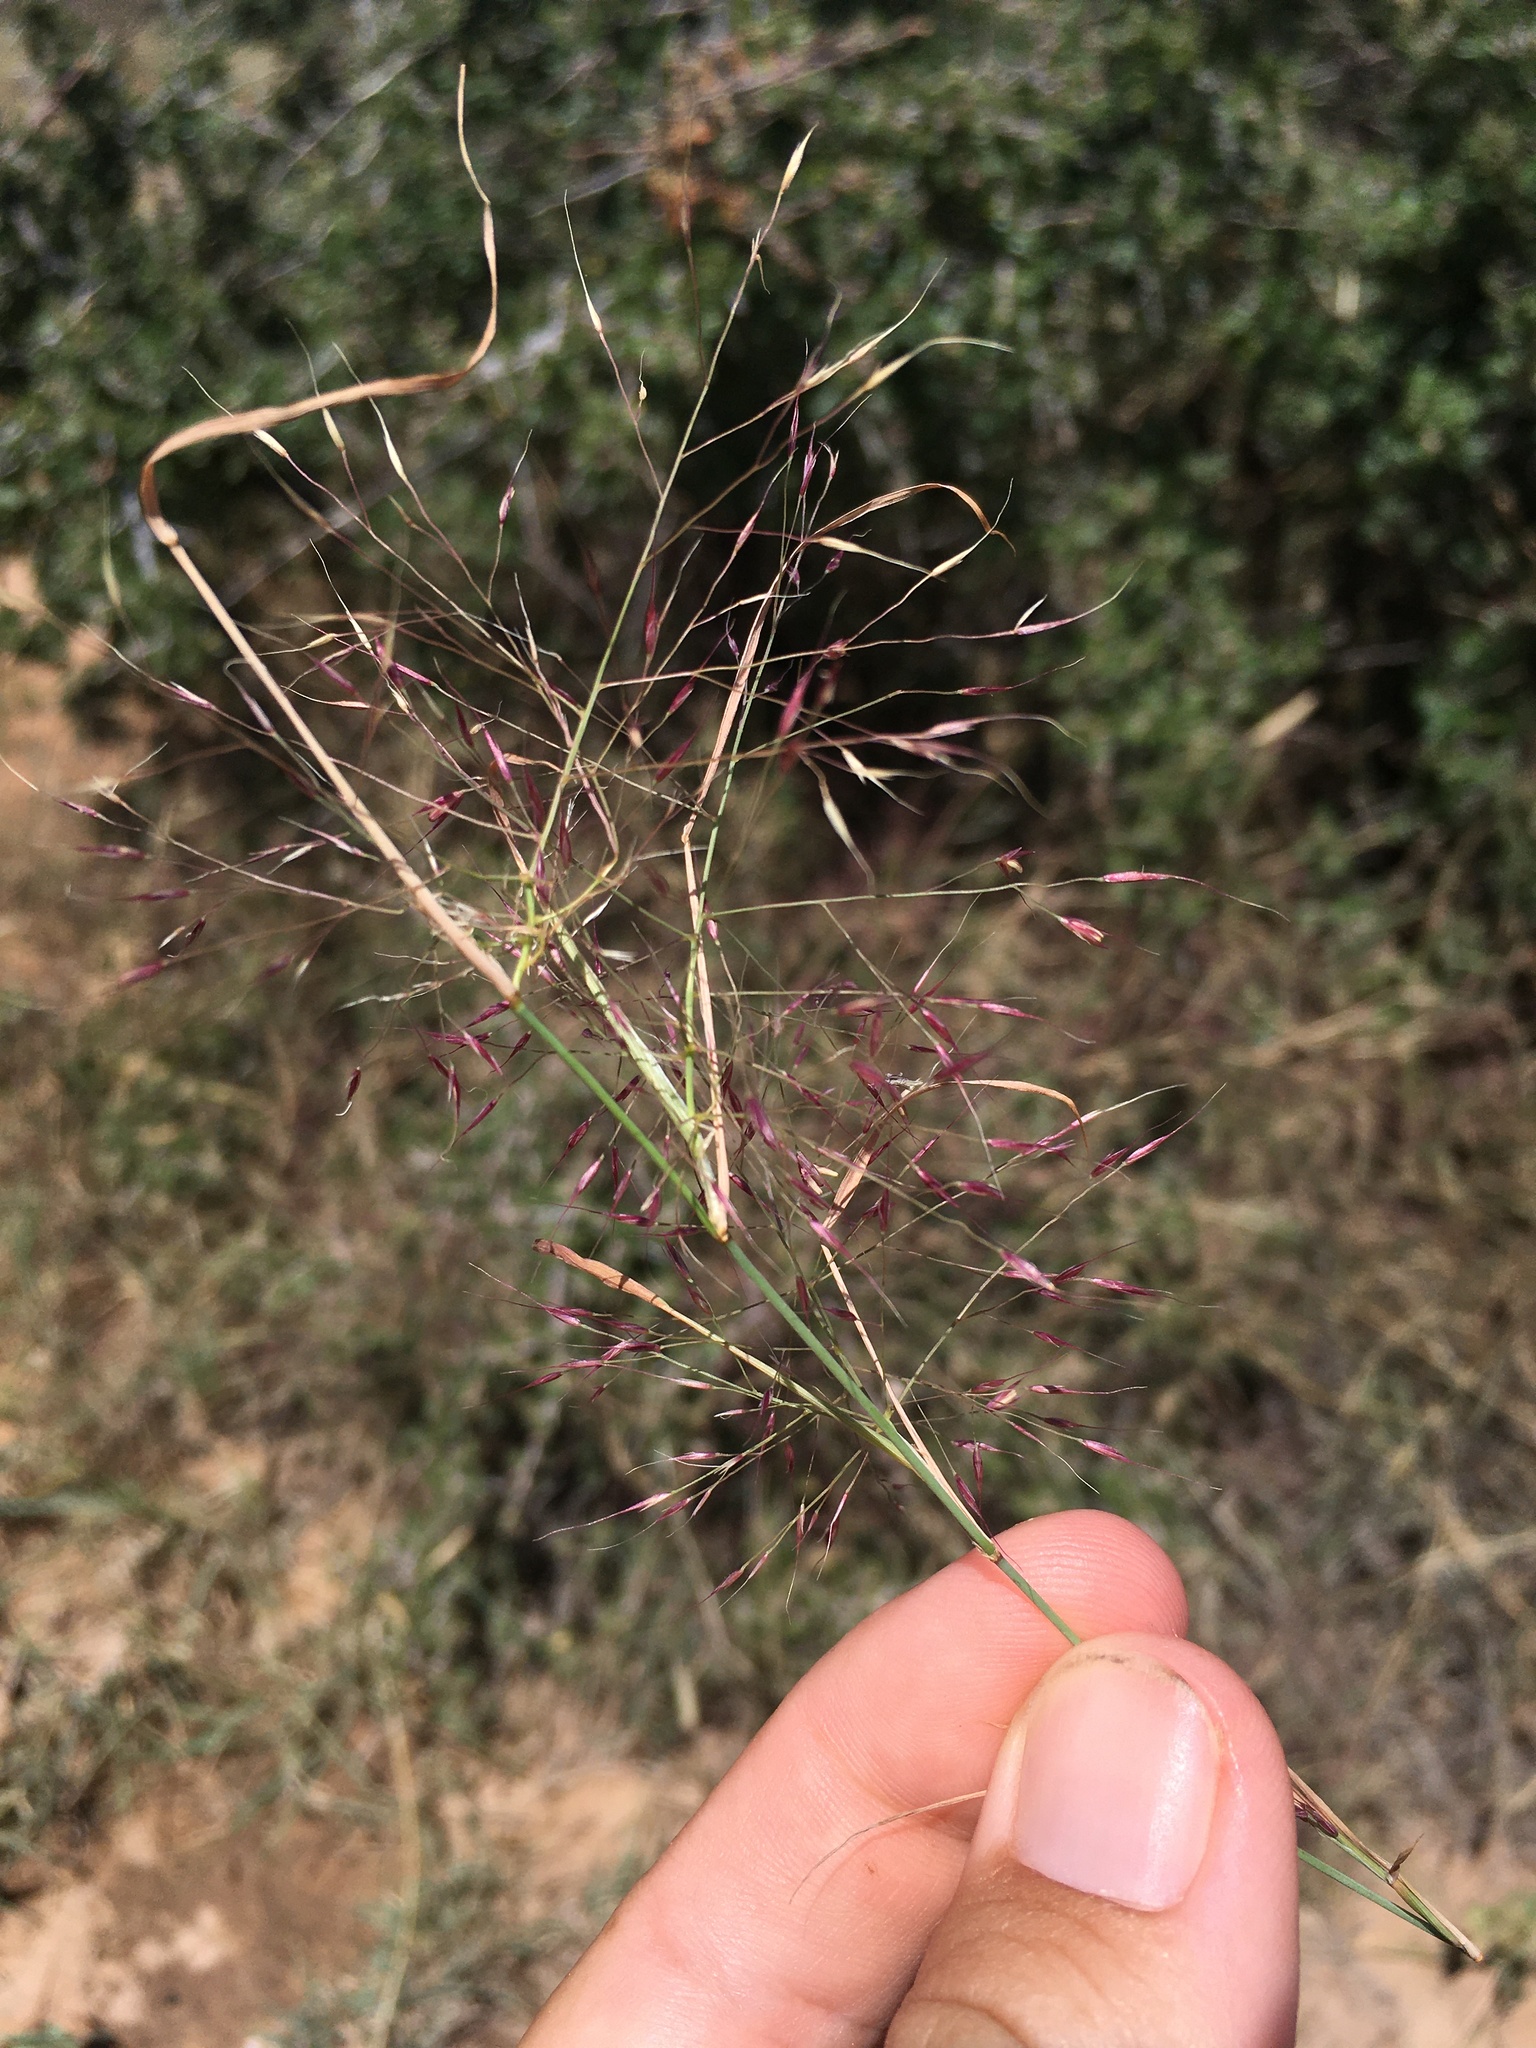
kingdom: Plantae
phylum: Tracheophyta
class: Liliopsida
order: Poales
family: Poaceae
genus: Muhlenbergia
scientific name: Muhlenbergia porteri
